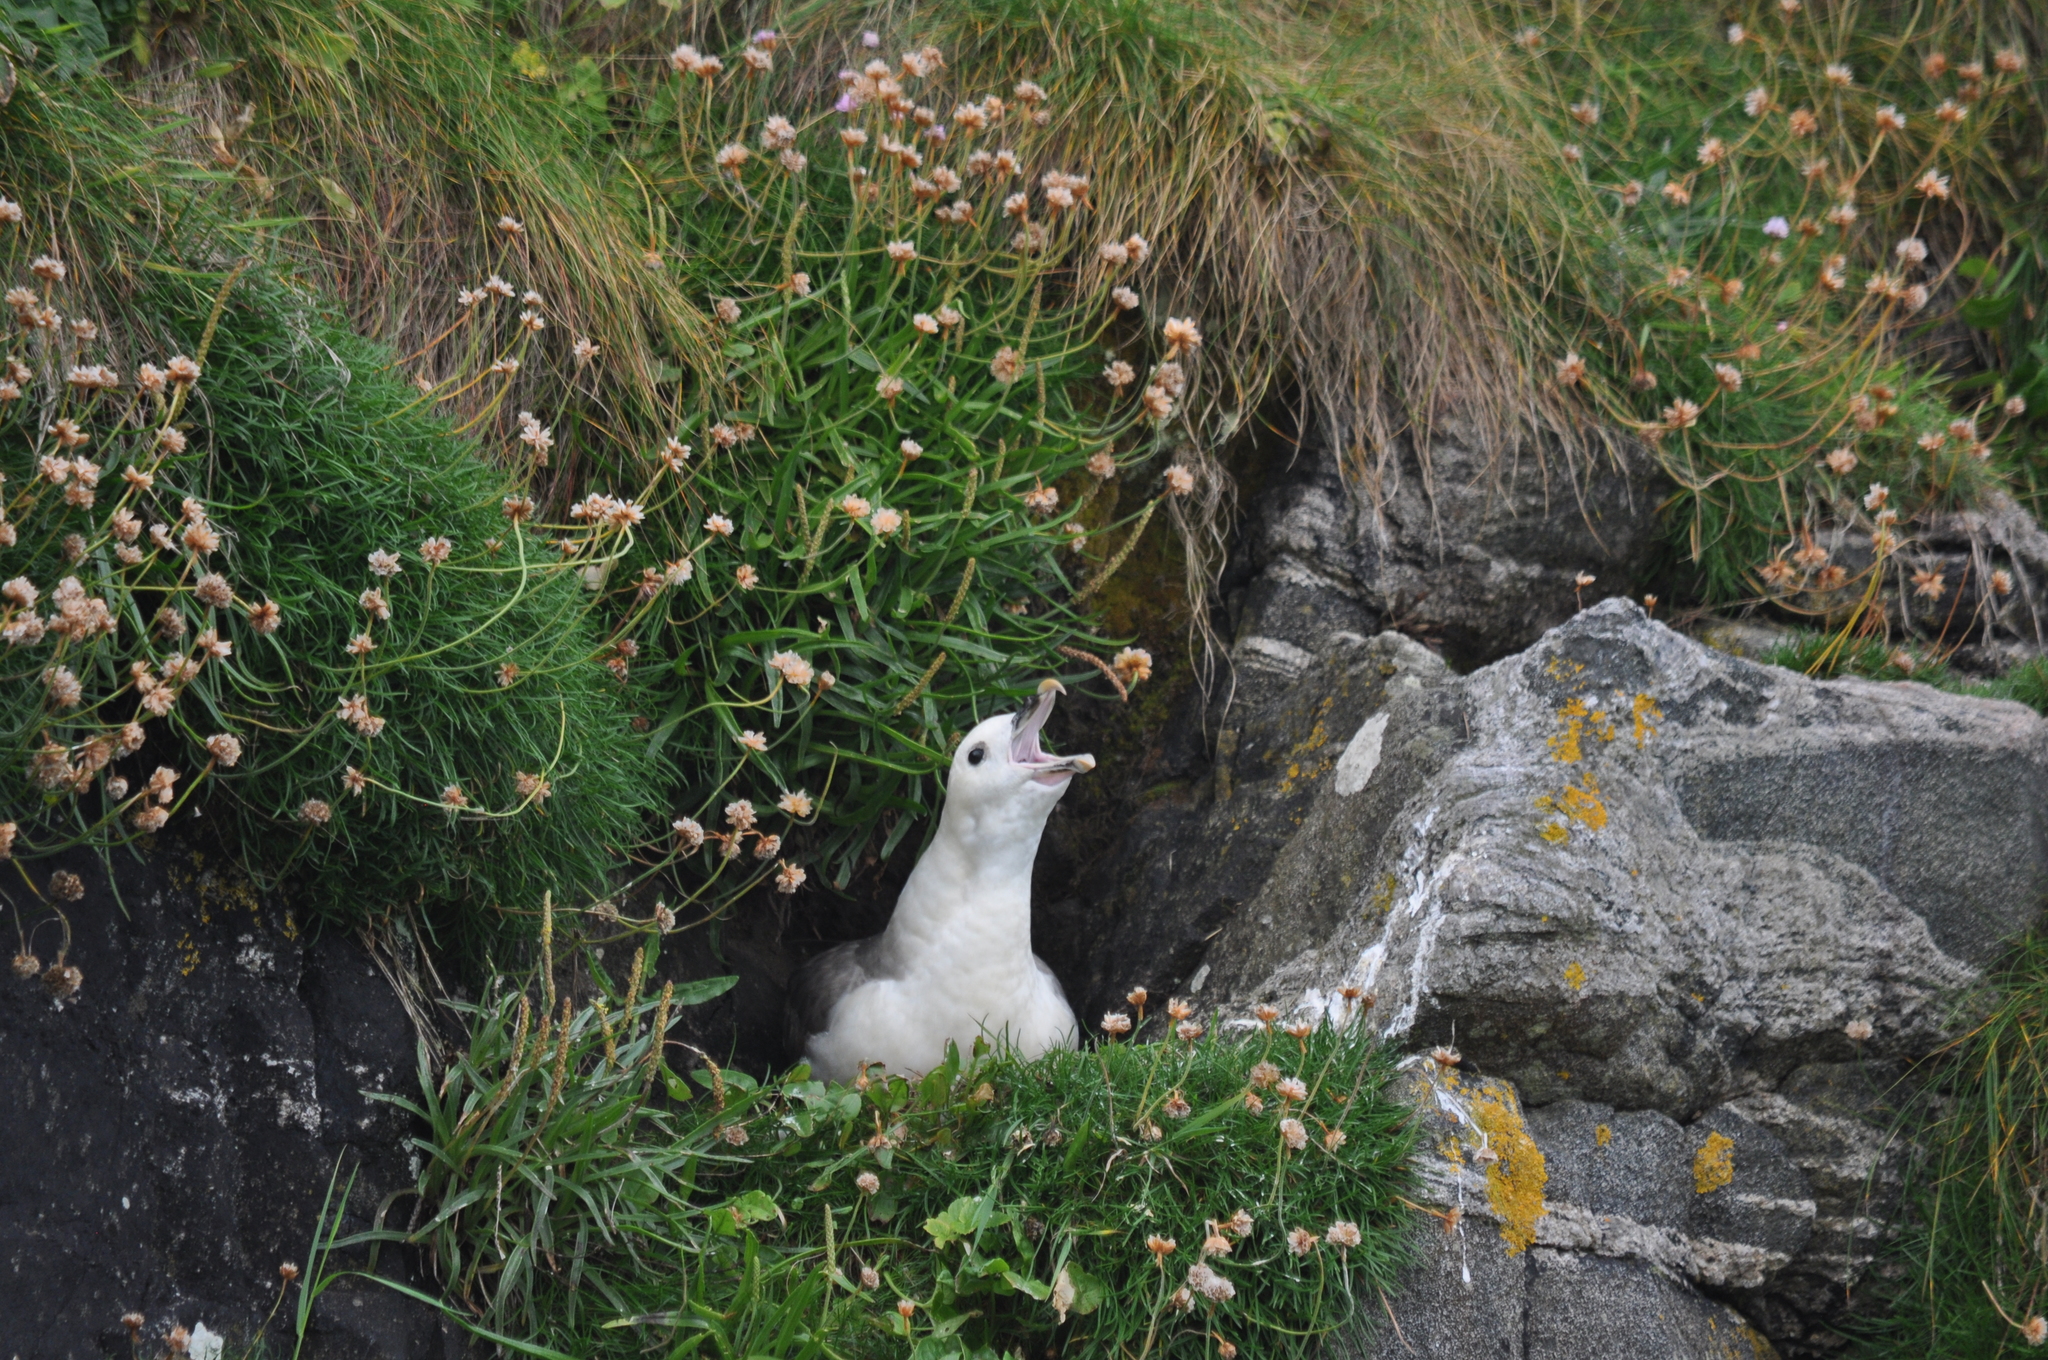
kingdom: Animalia
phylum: Chordata
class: Aves
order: Procellariiformes
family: Procellariidae
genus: Fulmarus
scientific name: Fulmarus glacialis
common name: Northern fulmar
